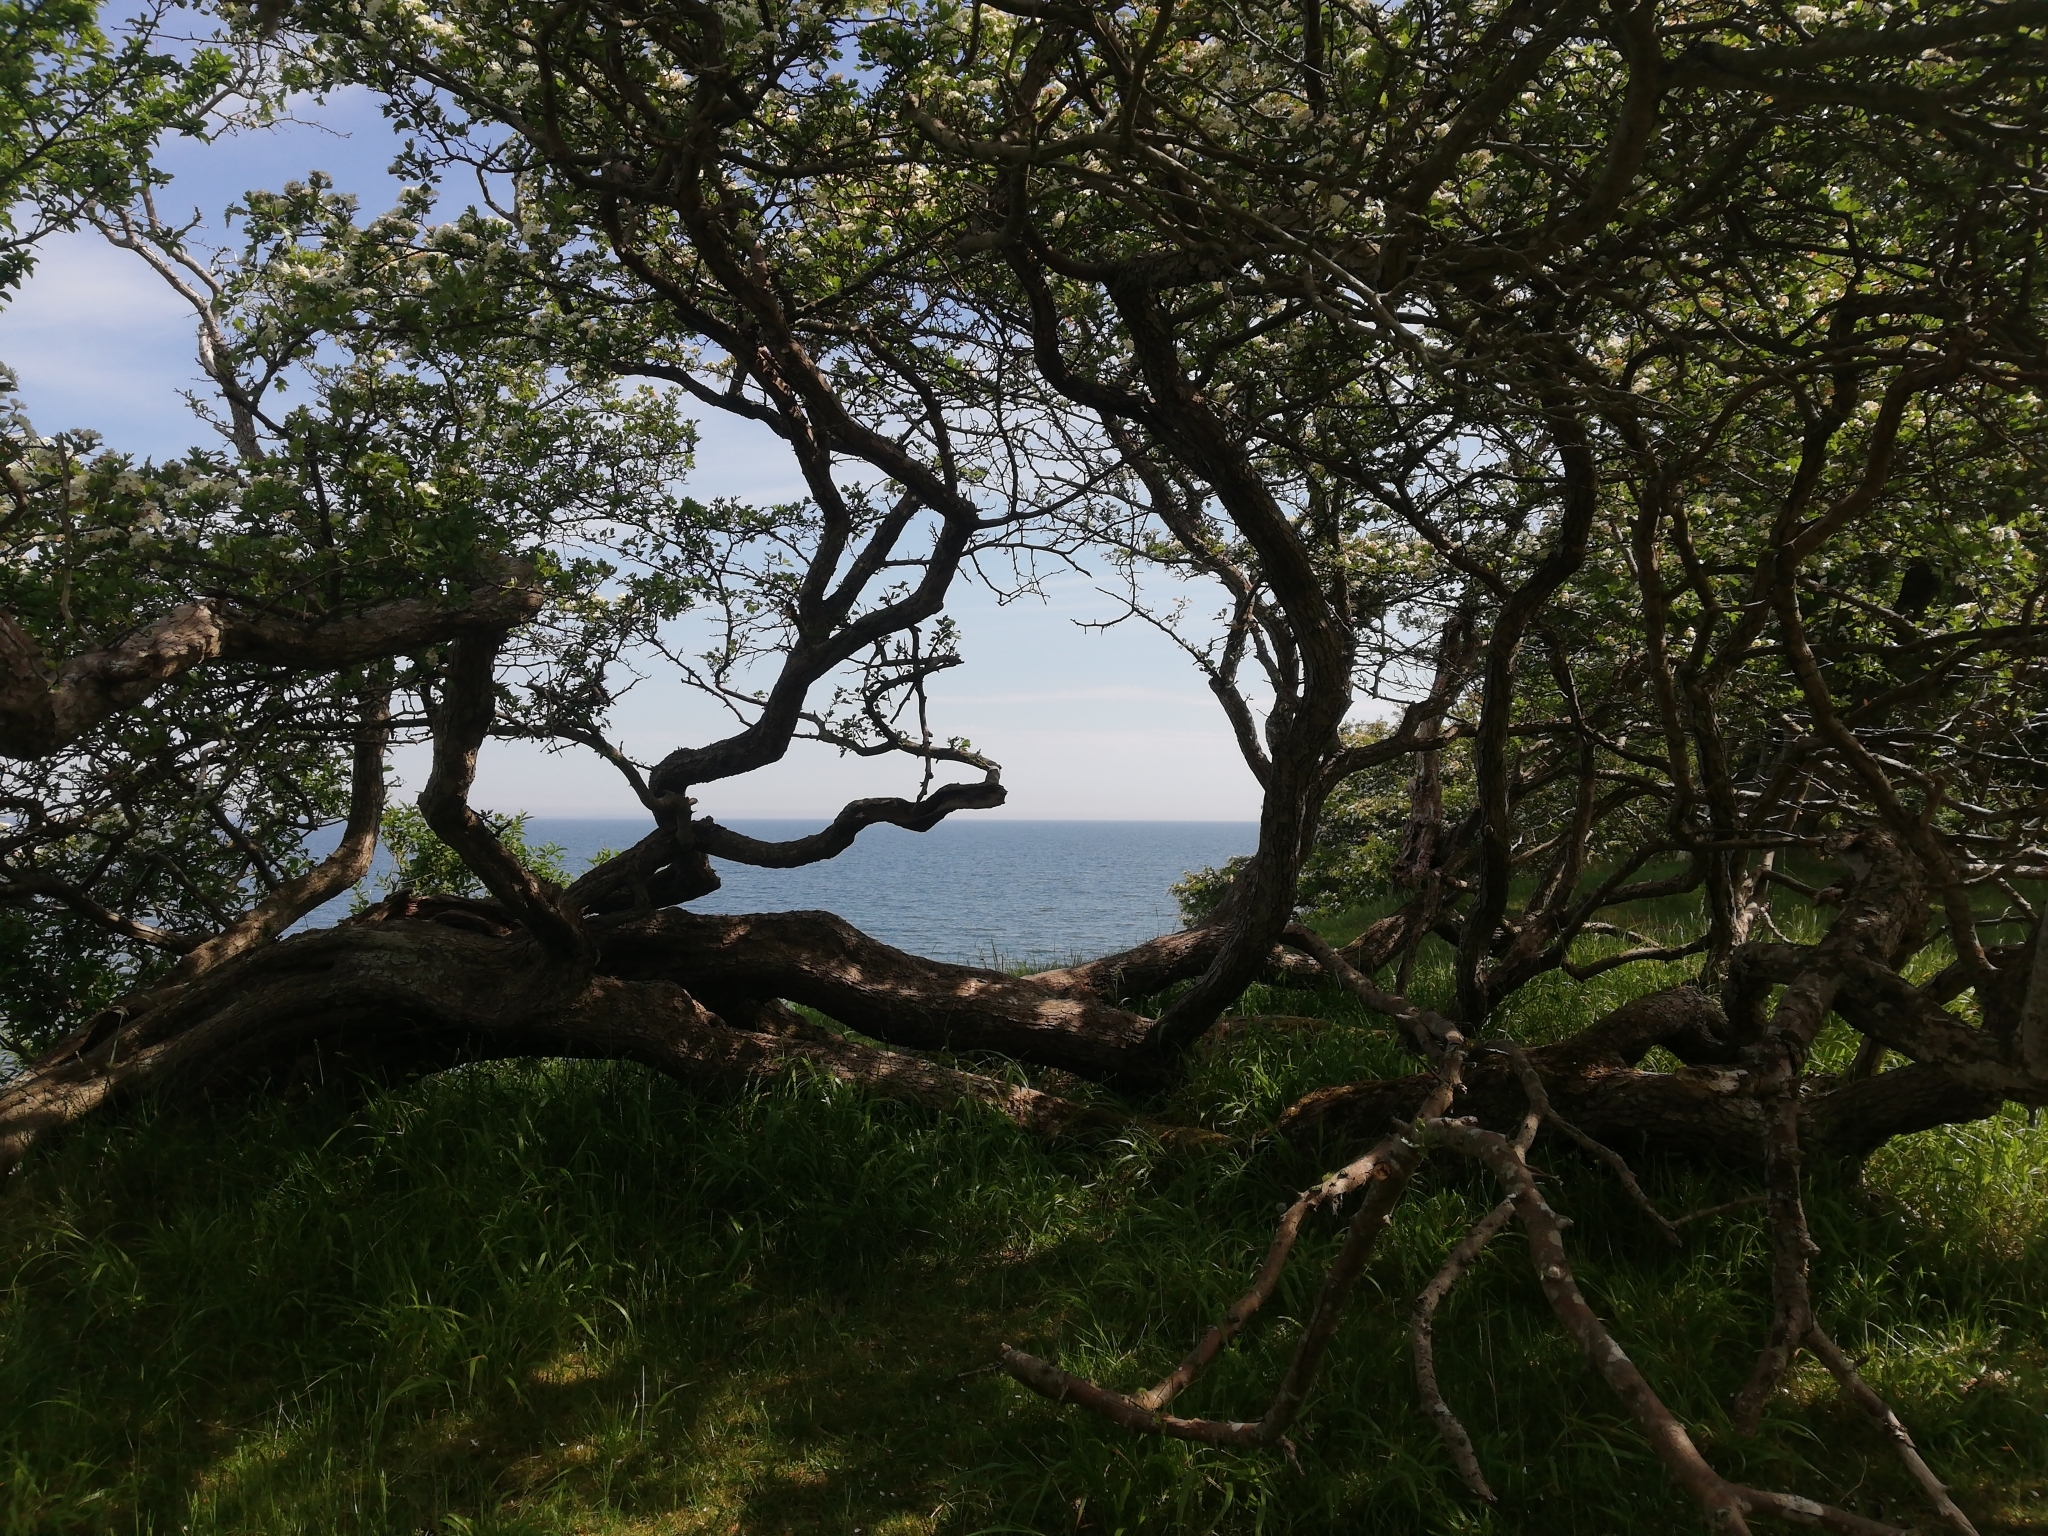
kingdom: Plantae
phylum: Tracheophyta
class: Magnoliopsida
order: Rosales
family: Rosaceae
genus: Crataegus
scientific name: Crataegus monogyna
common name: Hawthorn
